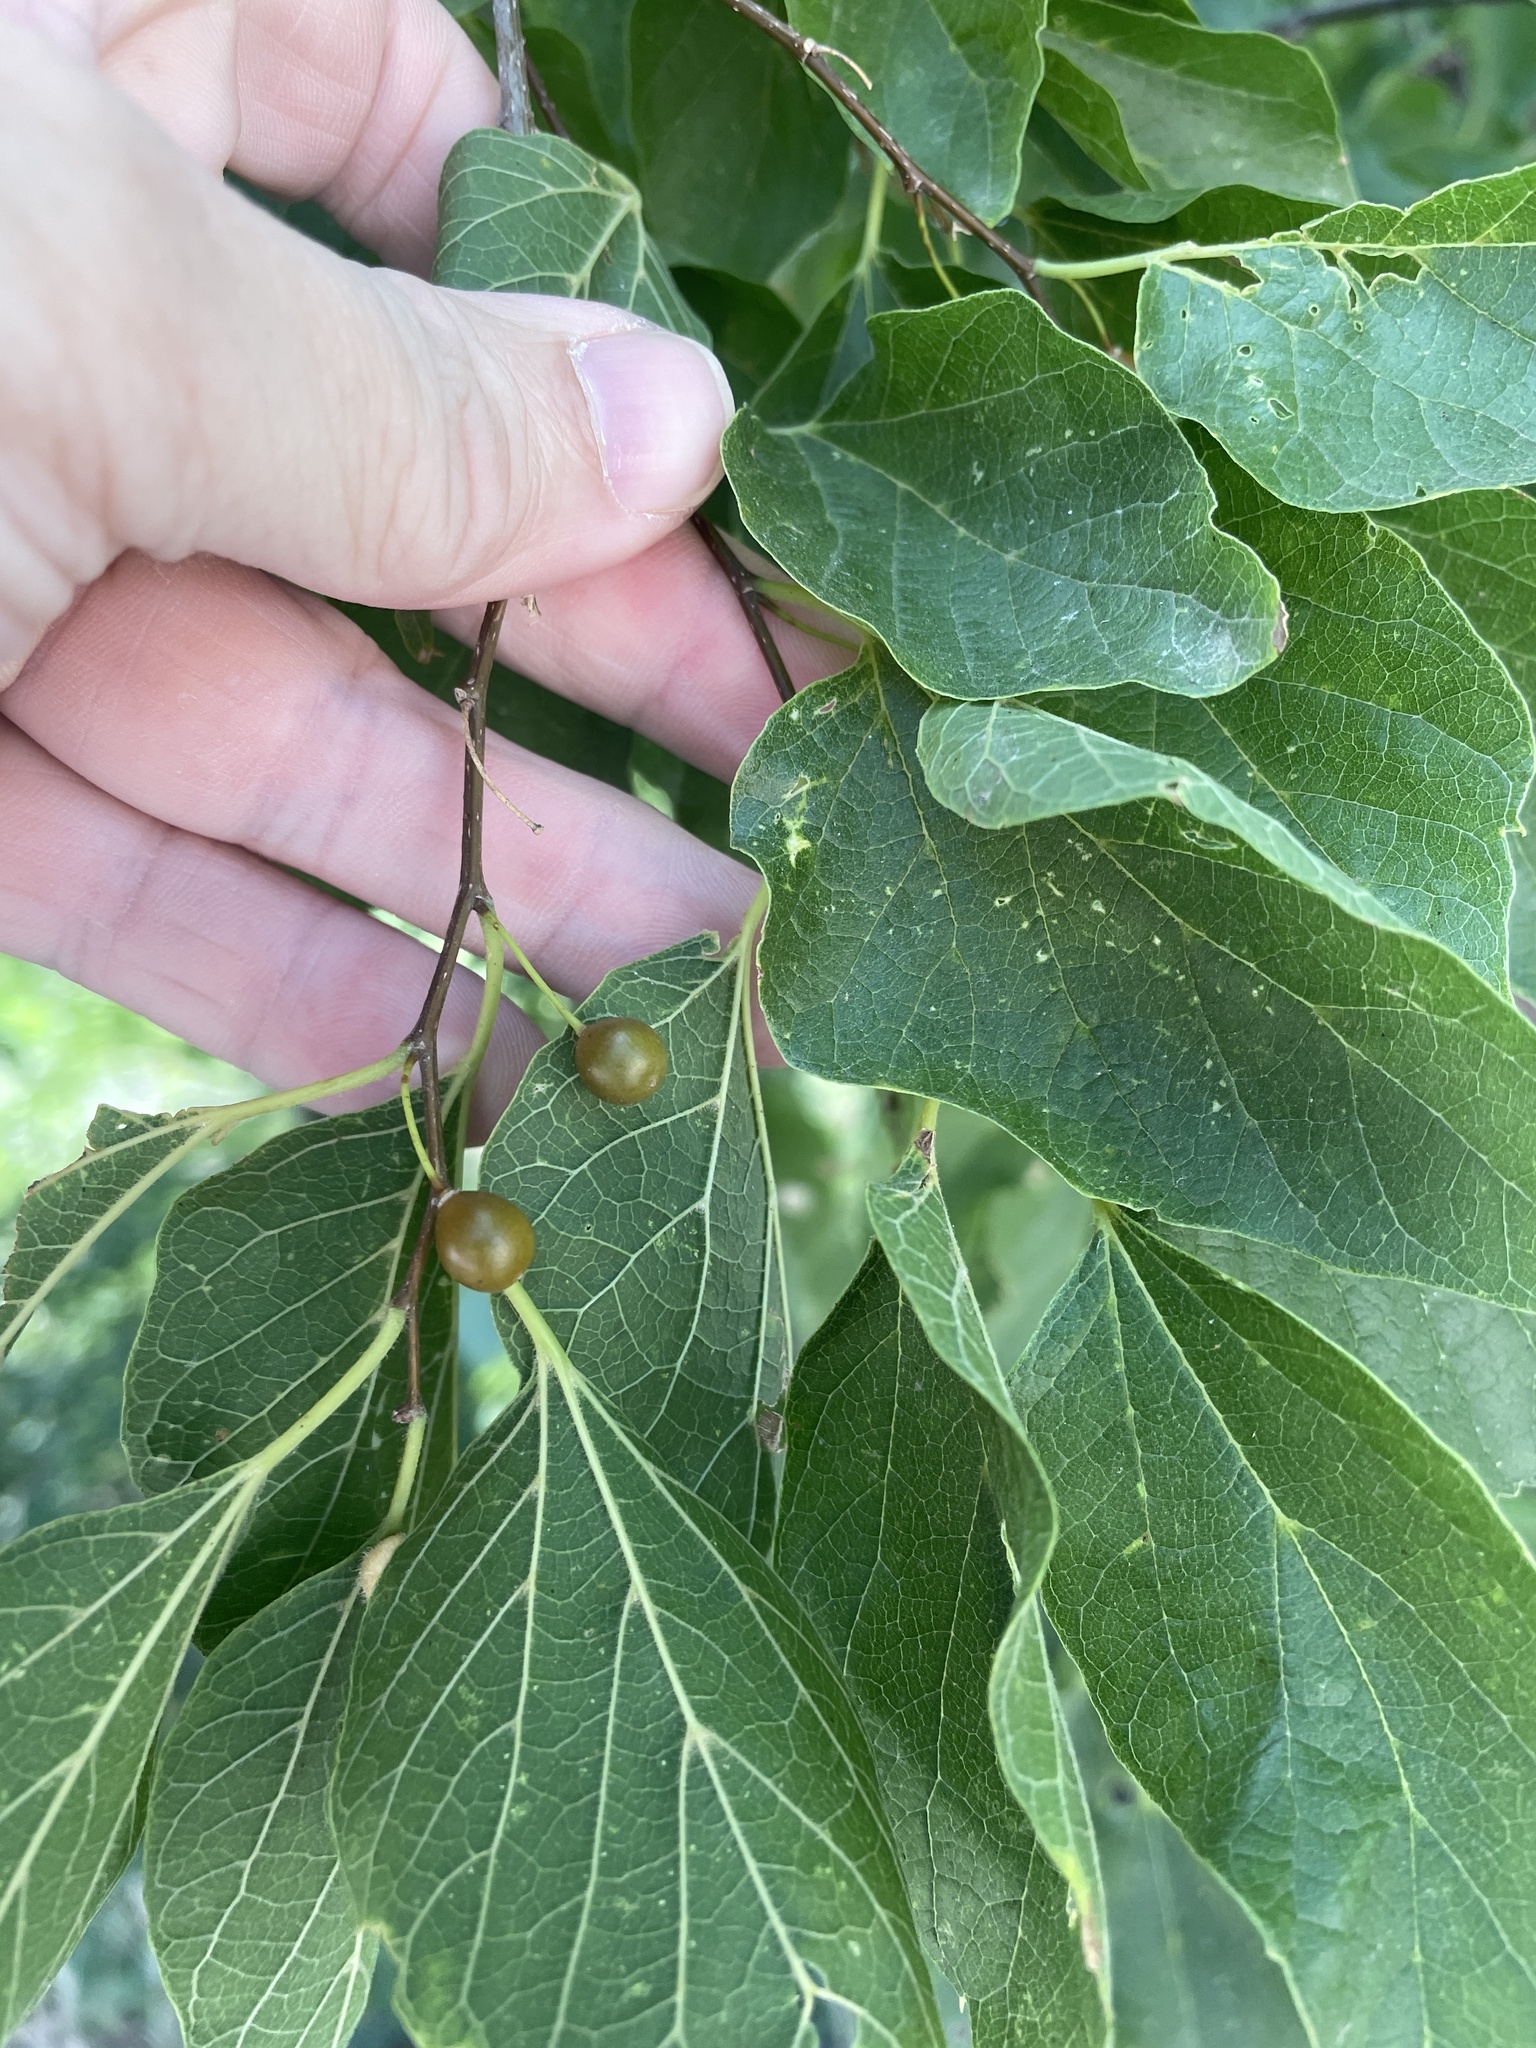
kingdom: Plantae
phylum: Tracheophyta
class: Magnoliopsida
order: Rosales
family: Cannabaceae
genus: Celtis
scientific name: Celtis laevigata
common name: Sugarberry
